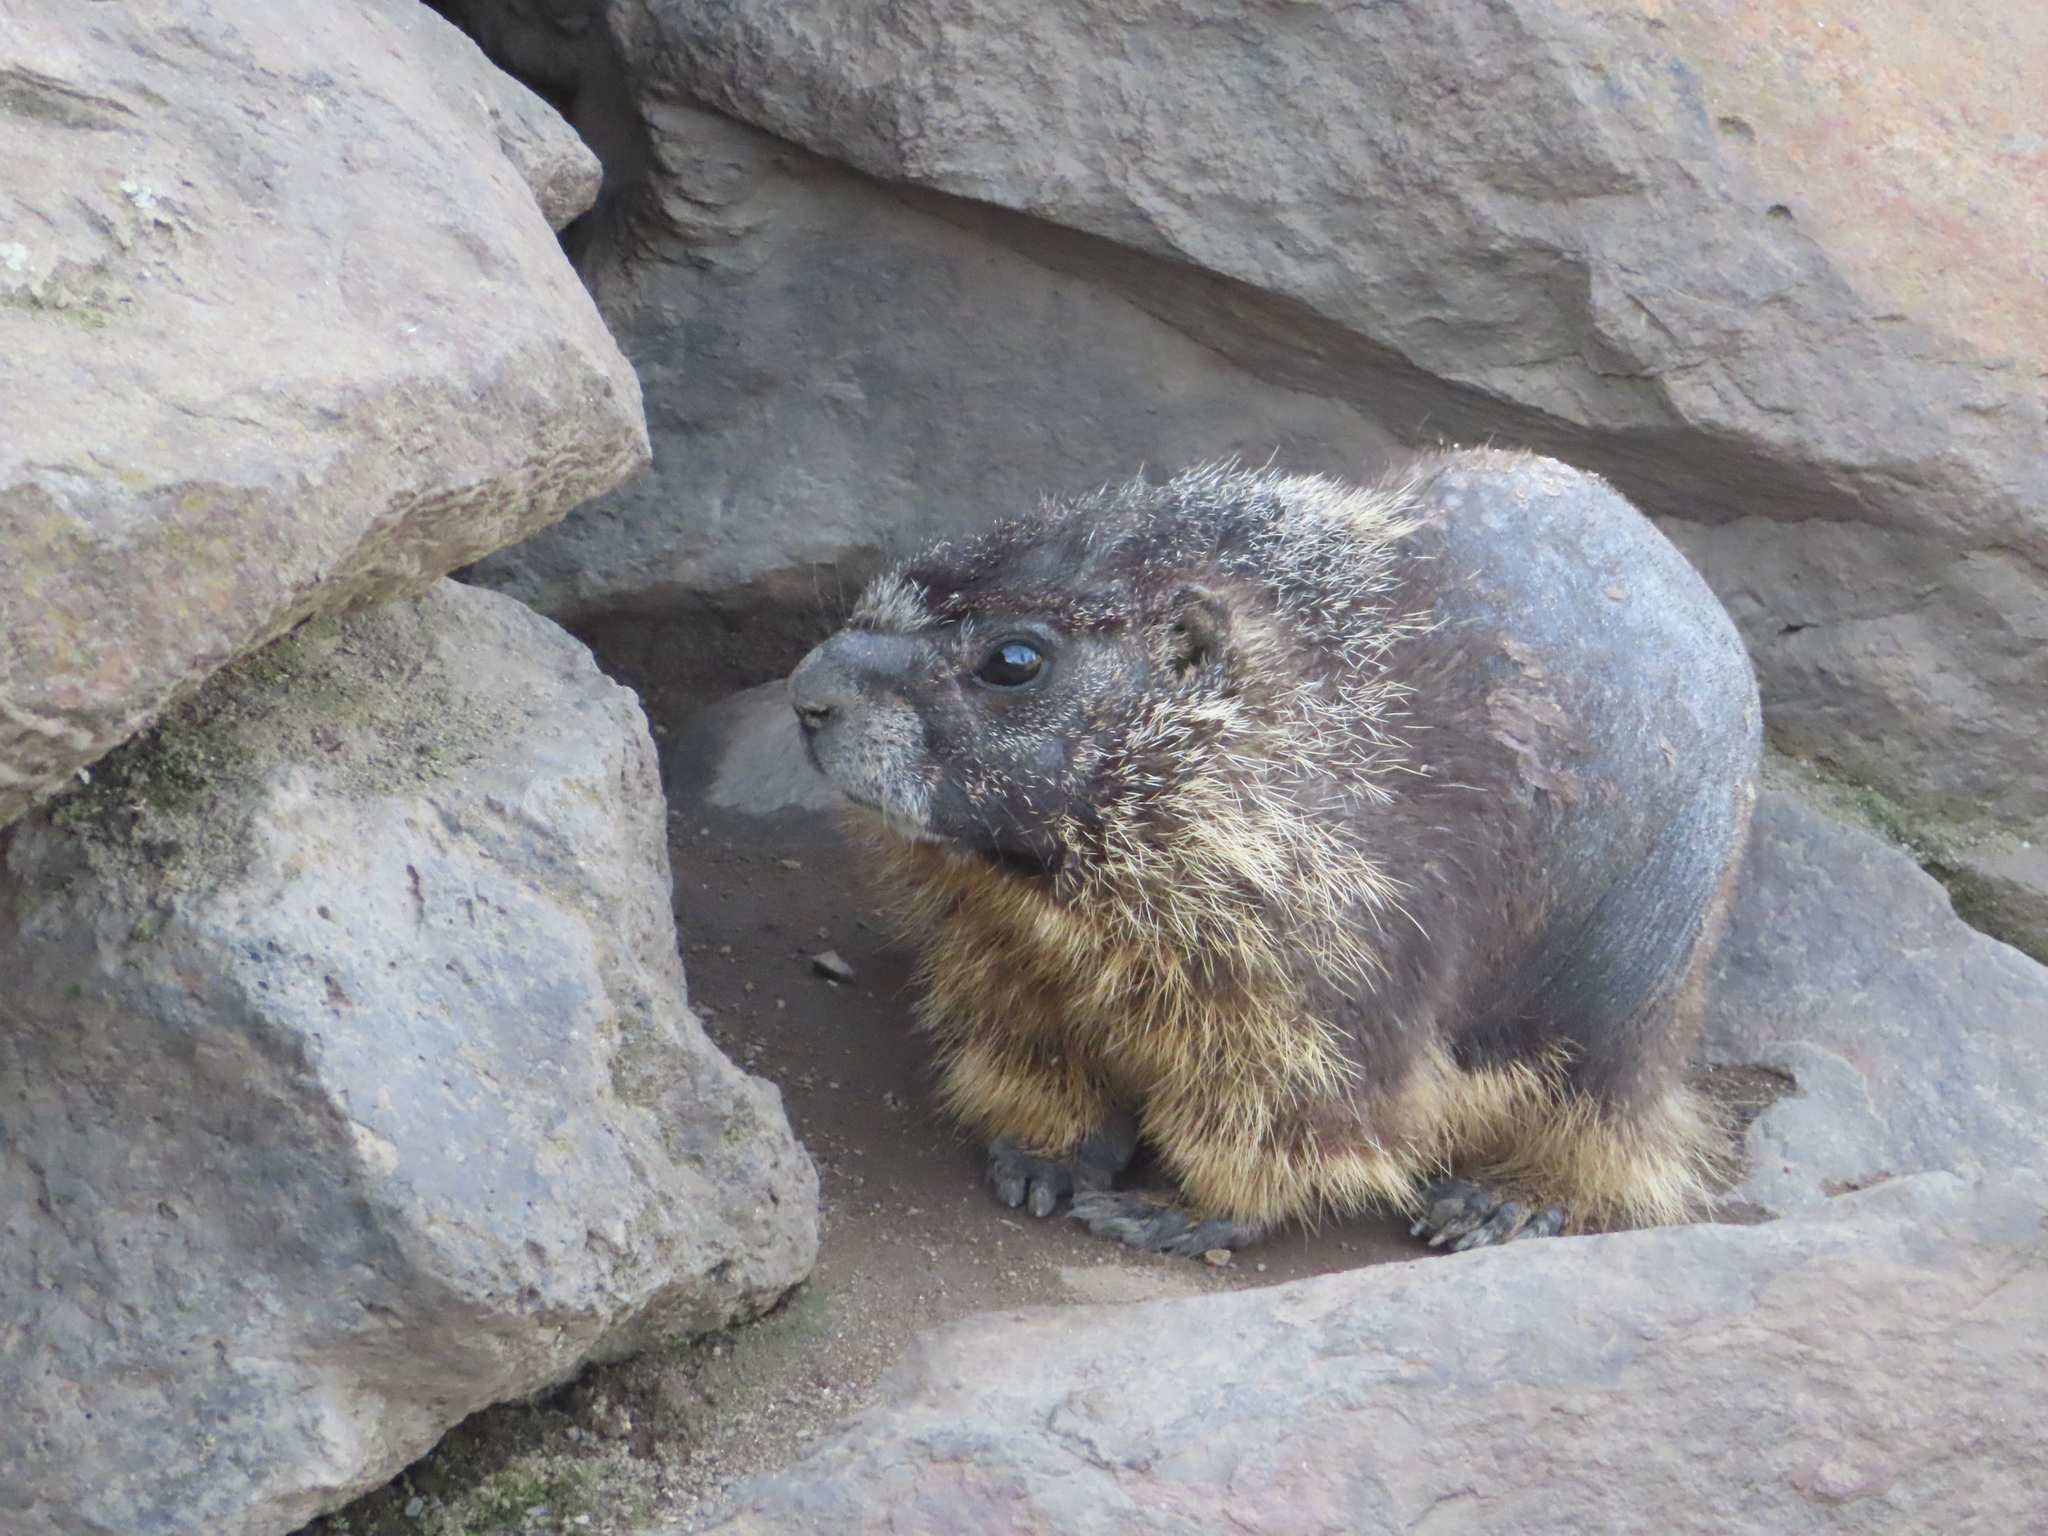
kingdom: Animalia
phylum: Chordata
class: Mammalia
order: Rodentia
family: Sciuridae
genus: Marmota
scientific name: Marmota flaviventris
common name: Yellow-bellied marmot
